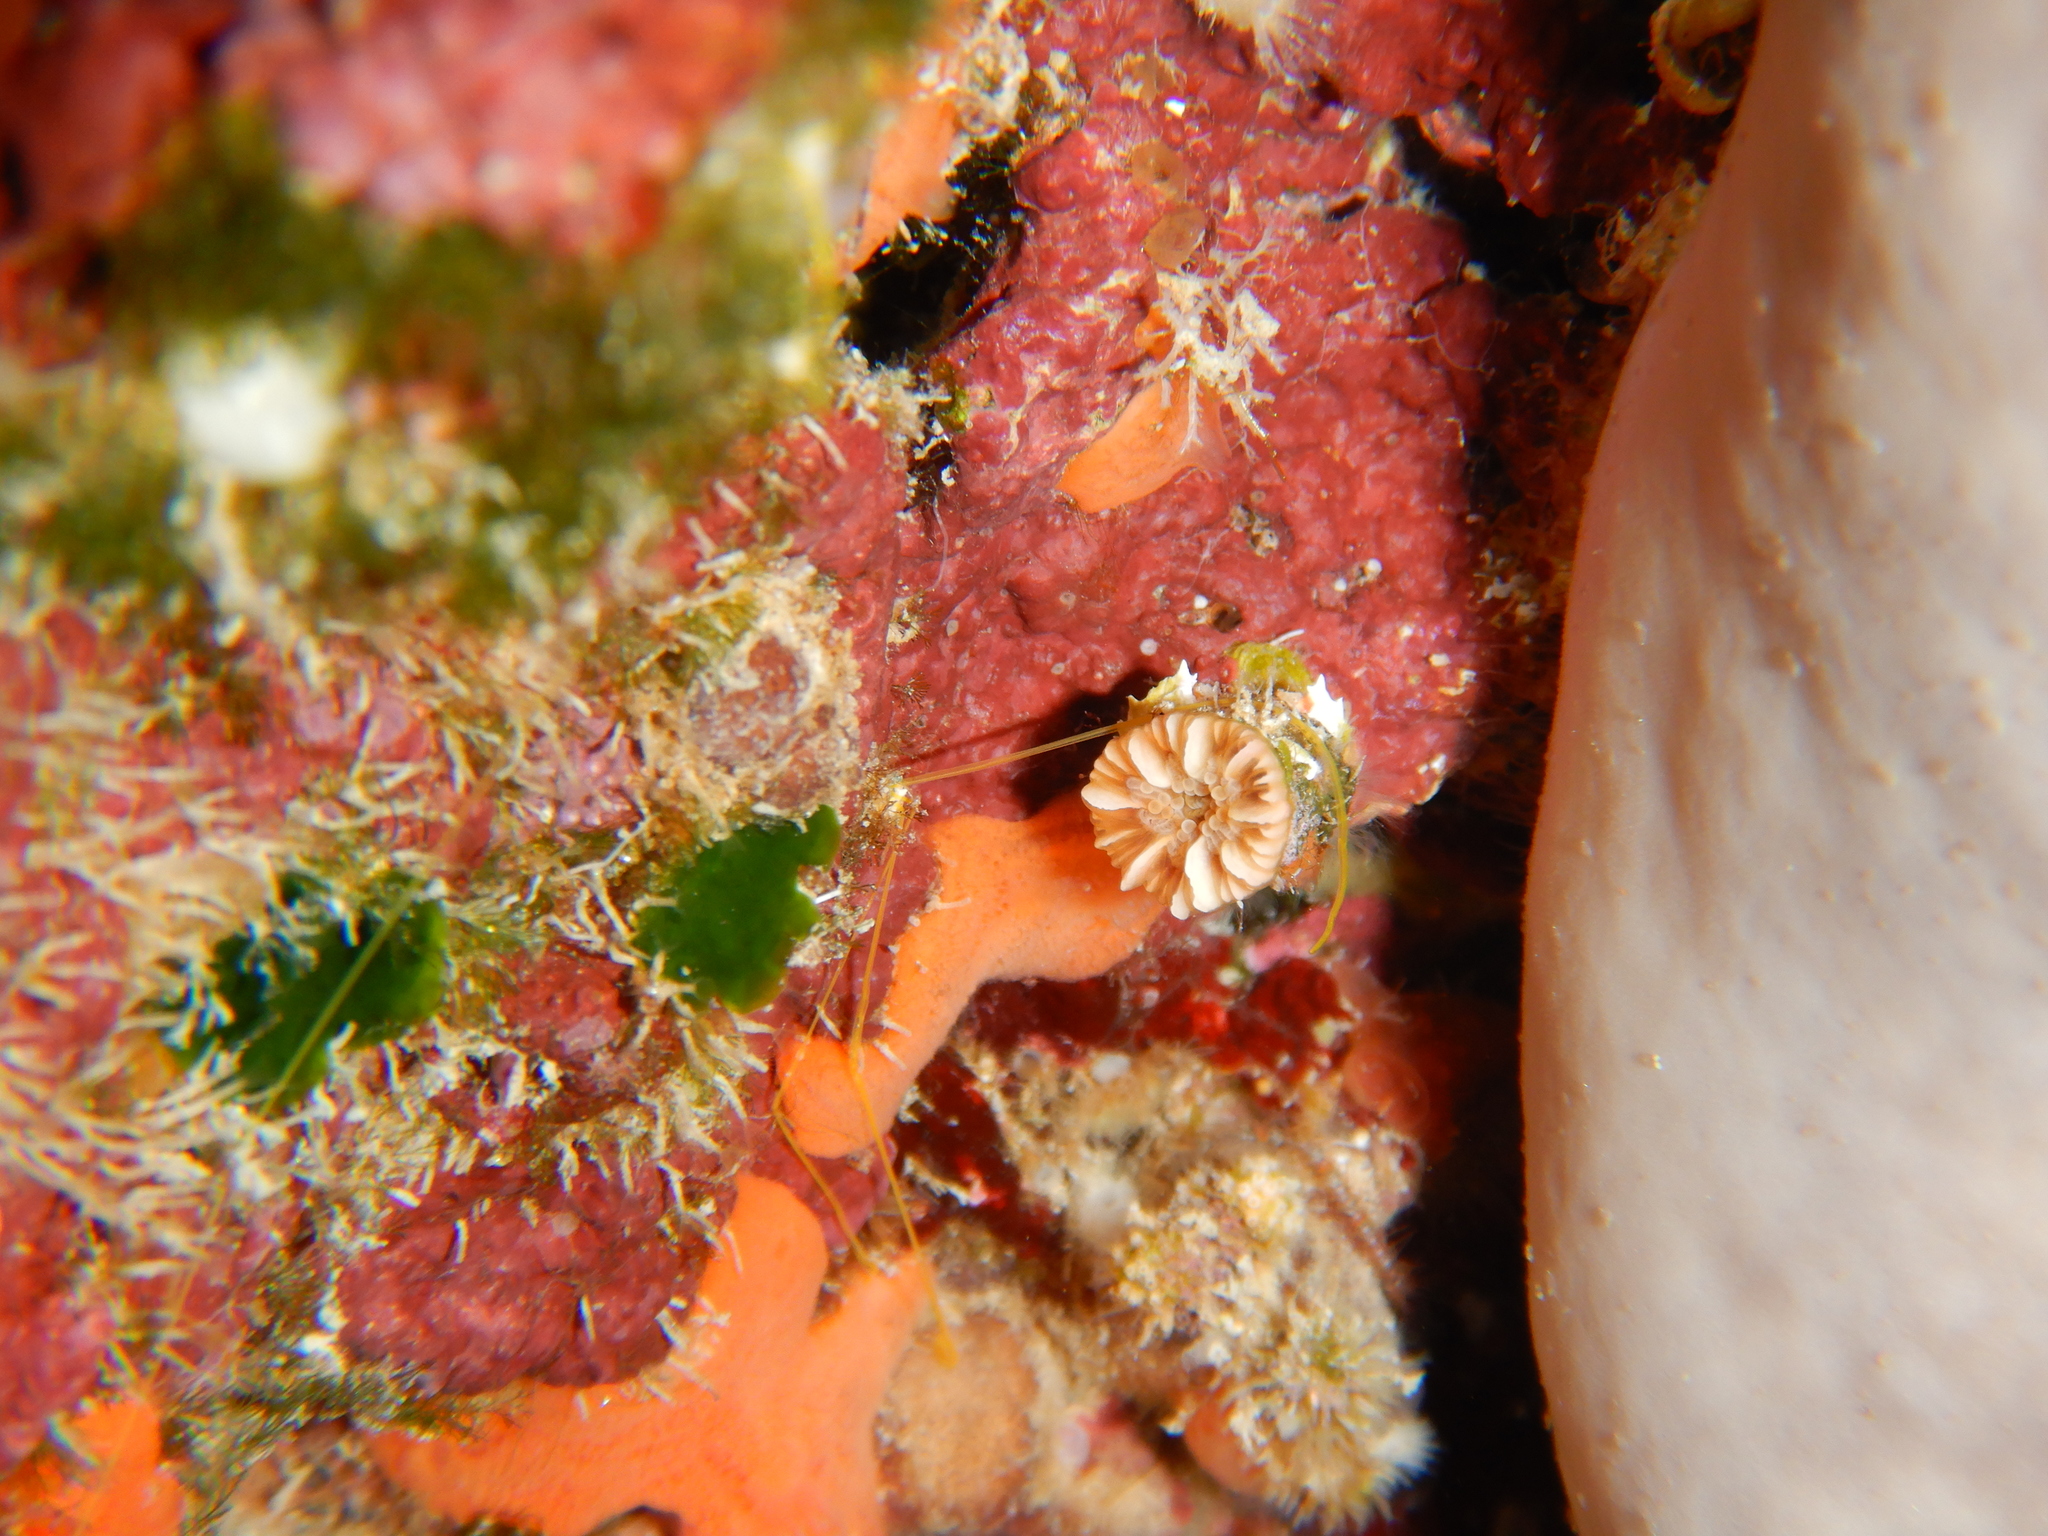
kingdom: Animalia
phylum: Cnidaria
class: Anthozoa
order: Scleractinia
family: Caryophylliidae
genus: Caryophyllia
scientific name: Caryophyllia inornata
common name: Circular cupcoral
